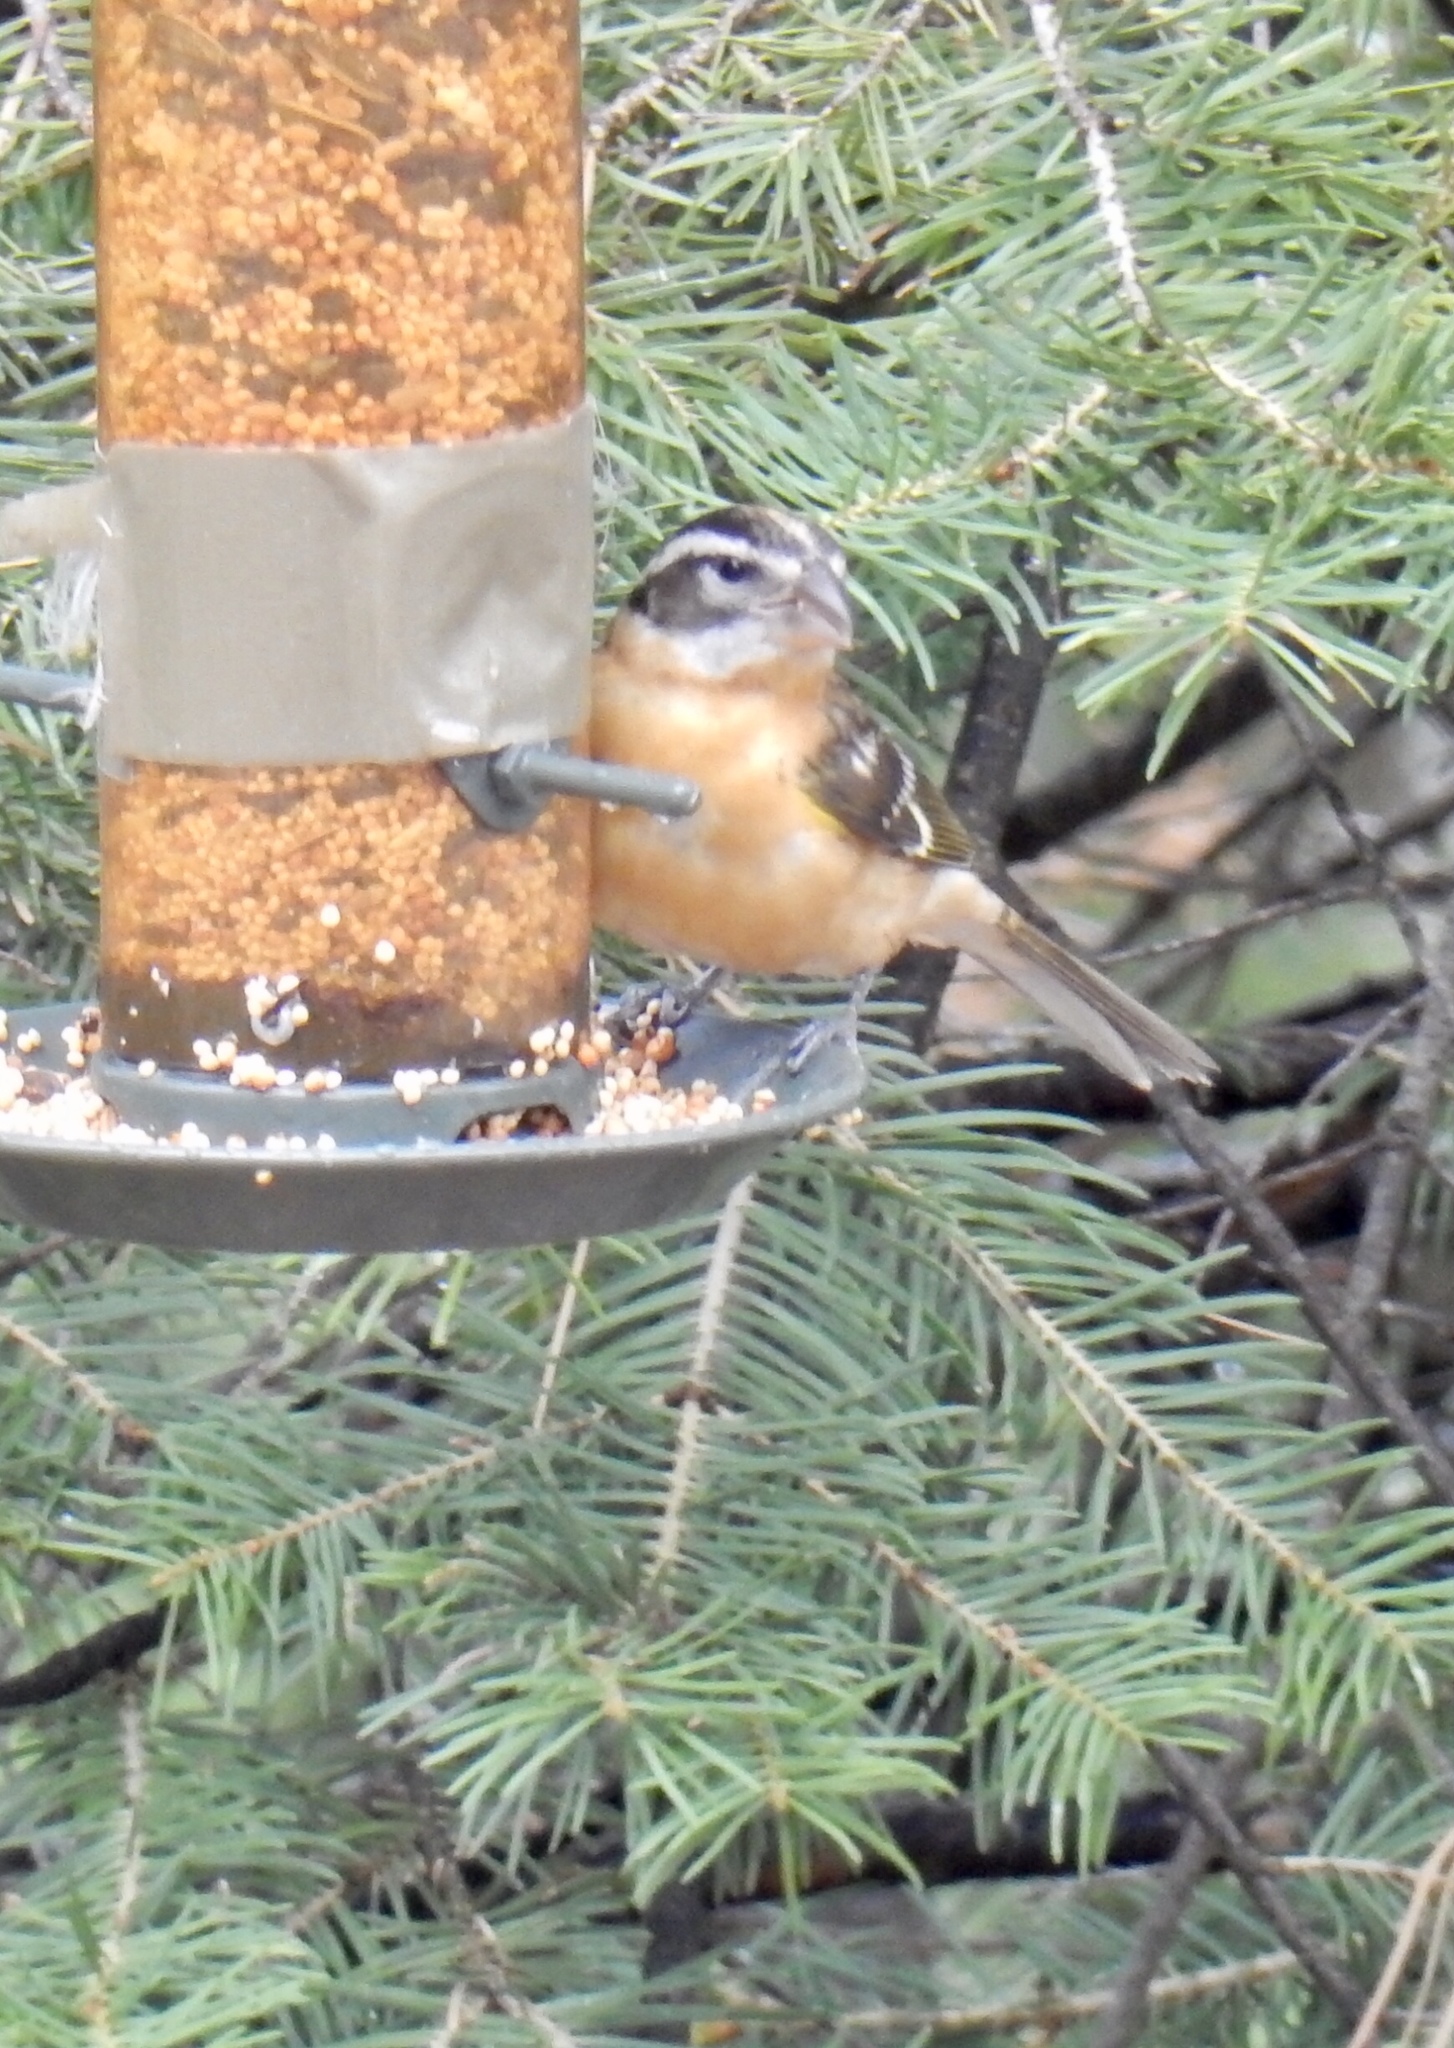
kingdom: Animalia
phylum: Chordata
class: Aves
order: Passeriformes
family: Cardinalidae
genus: Pheucticus
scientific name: Pheucticus melanocephalus
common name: Black-headed grosbeak
